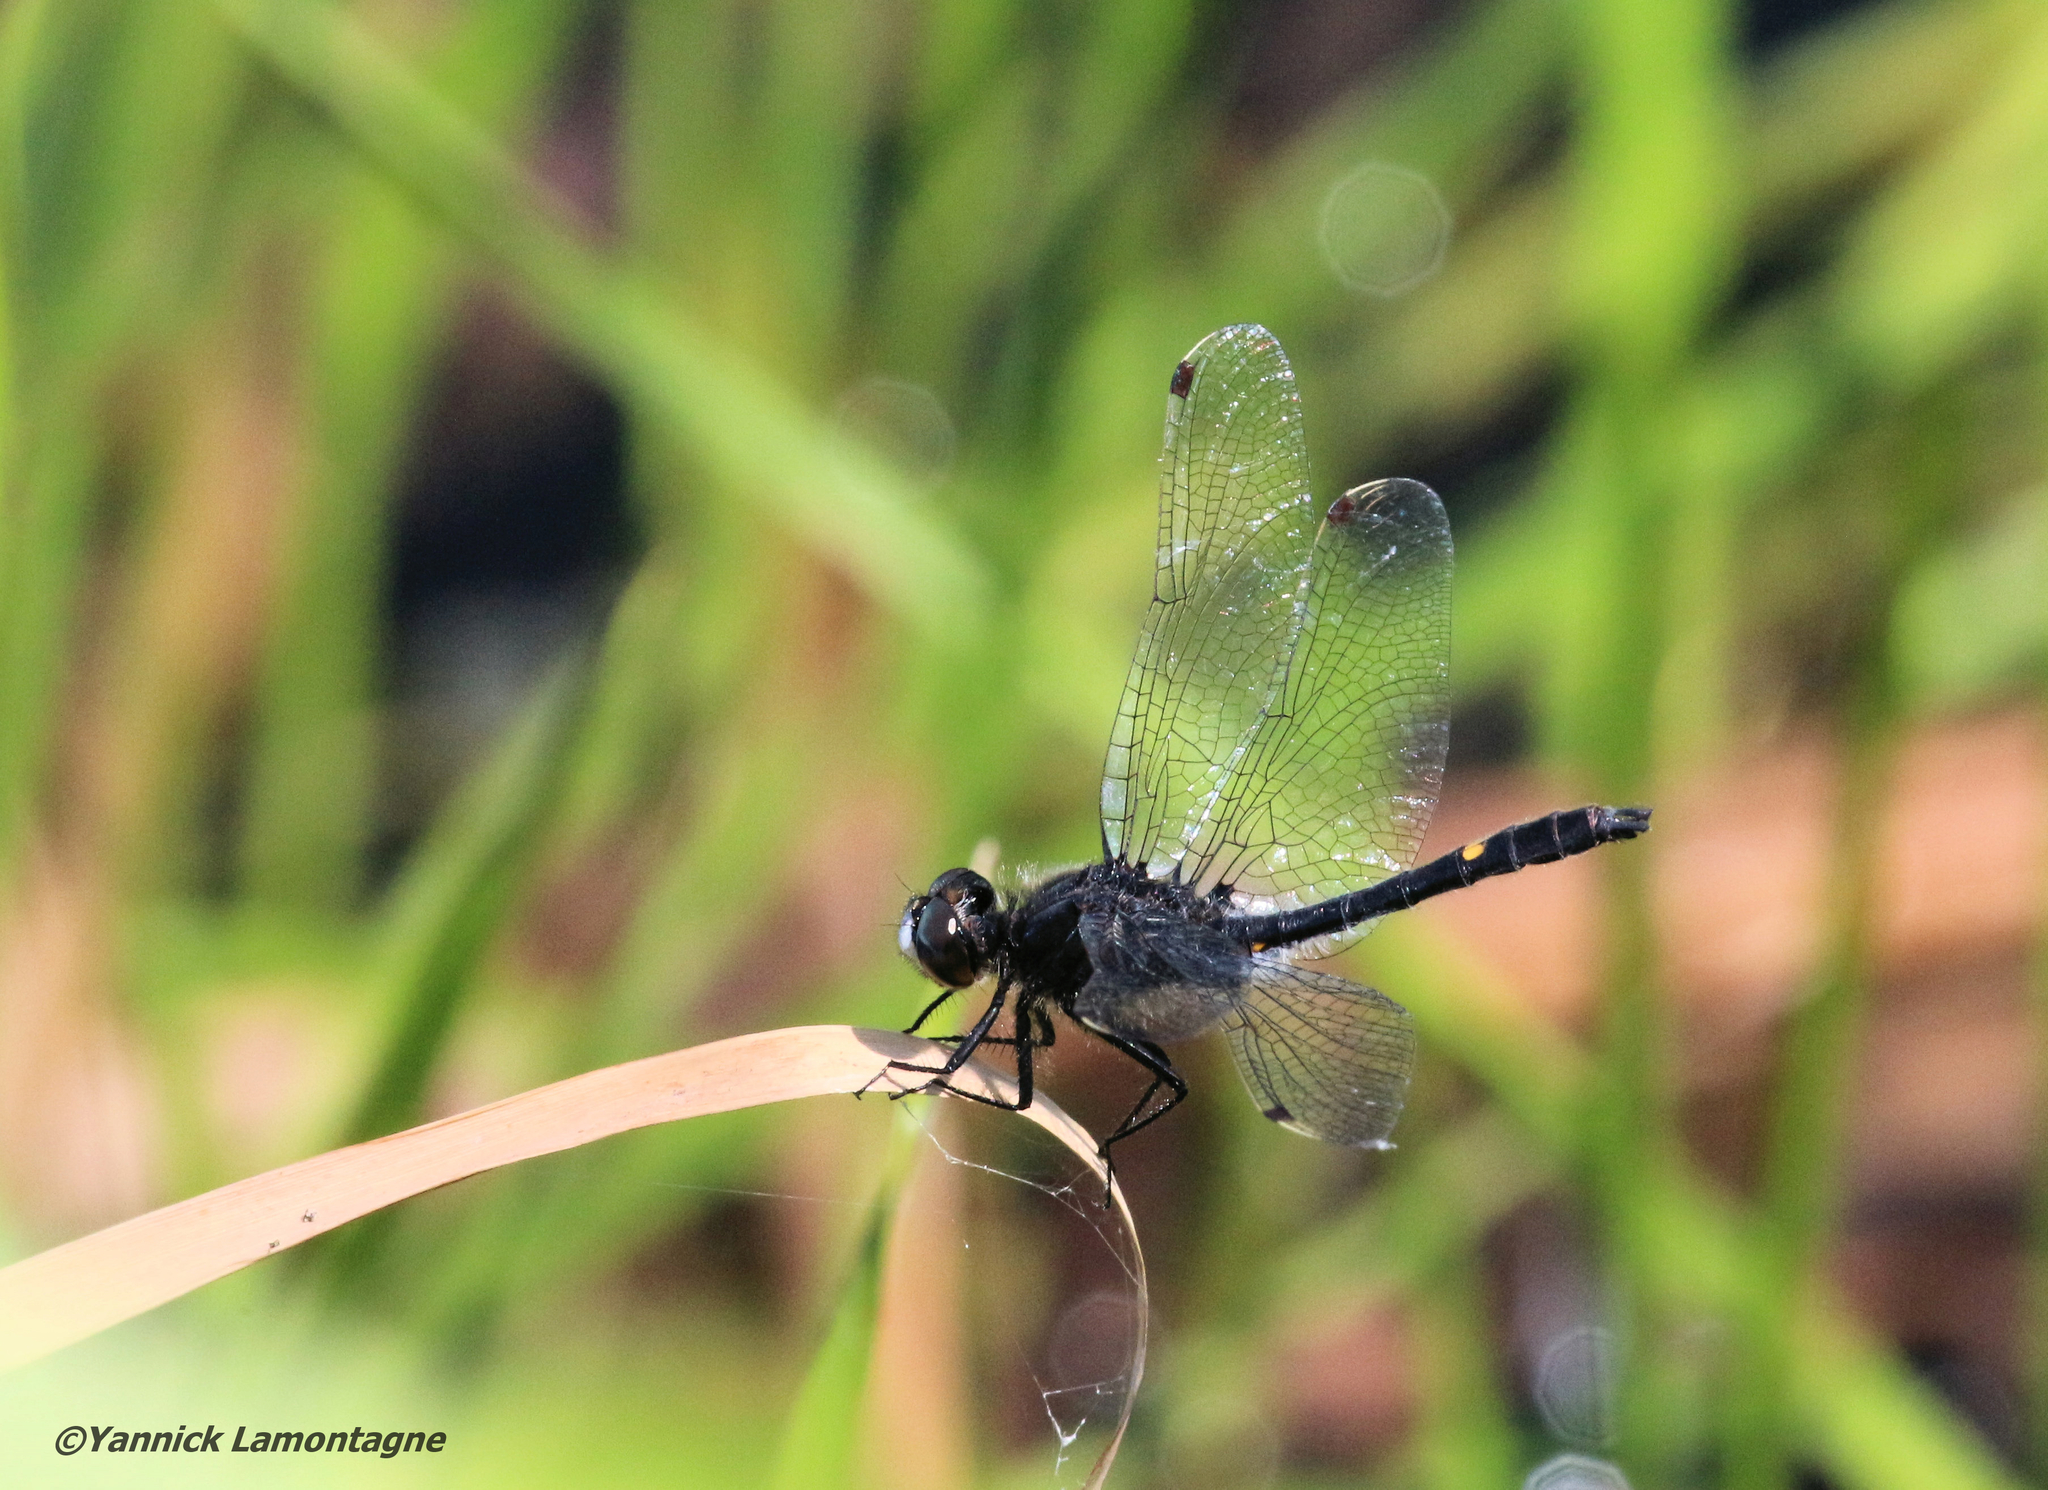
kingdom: Animalia
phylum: Arthropoda
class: Insecta
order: Odonata
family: Libellulidae
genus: Leucorrhinia
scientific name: Leucorrhinia intacta
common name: Dot-tailed whiteface
